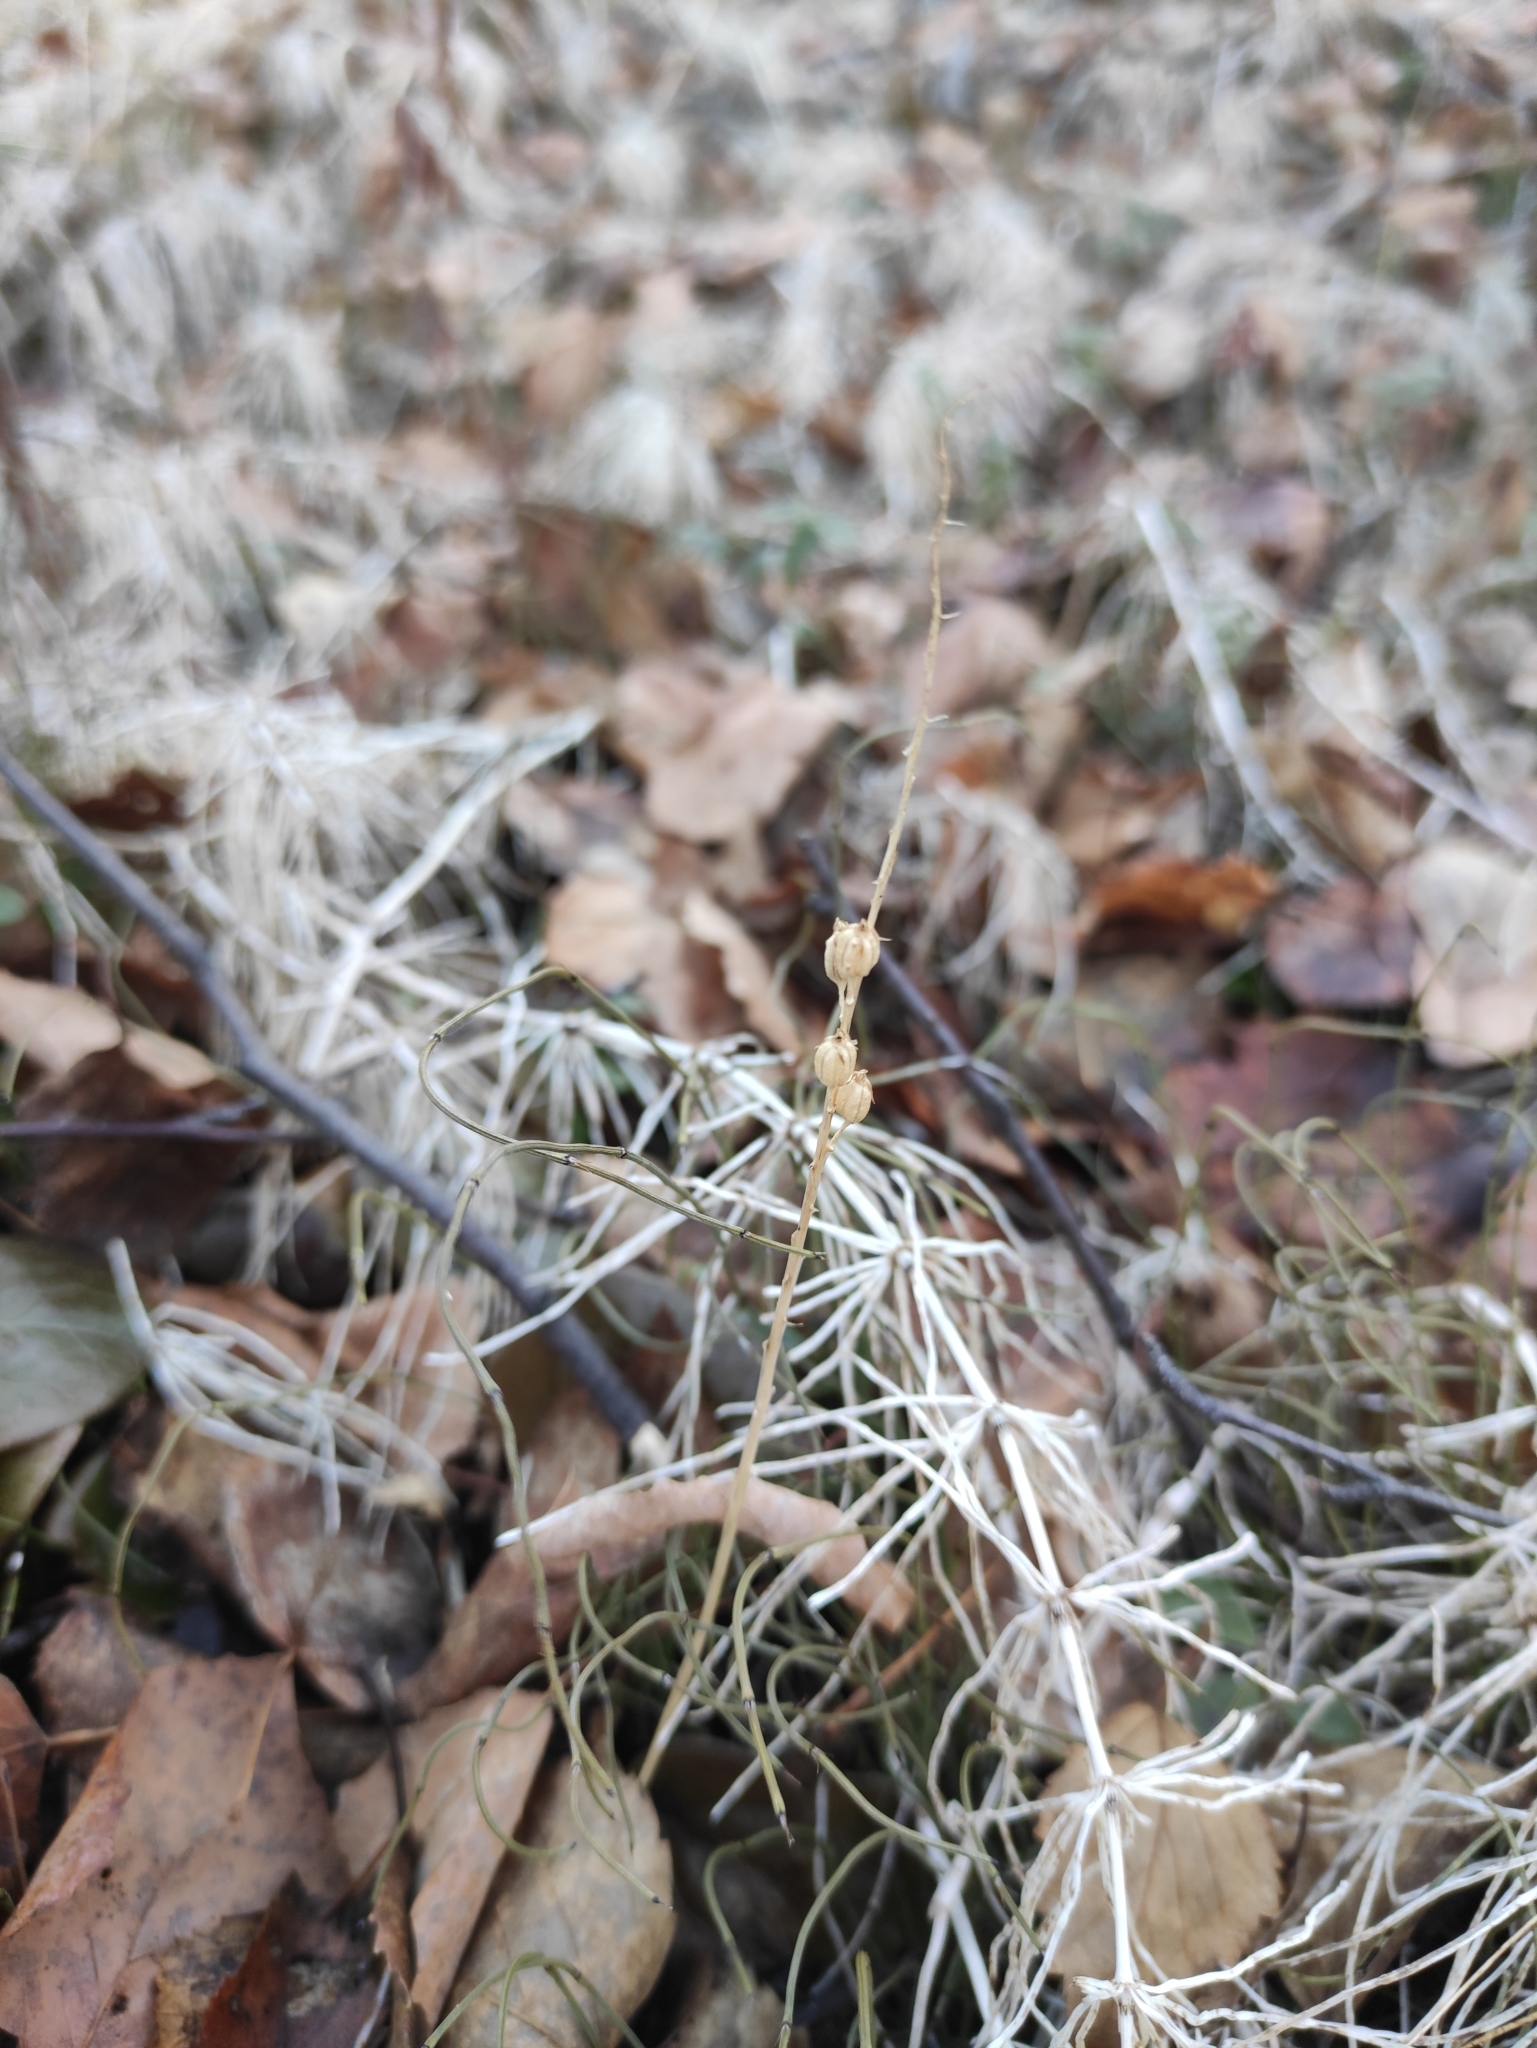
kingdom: Plantae
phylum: Tracheophyta
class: Liliopsida
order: Asparagales
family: Orchidaceae
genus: Malaxis
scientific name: Malaxis monophyllos
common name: White adder's-mouth
